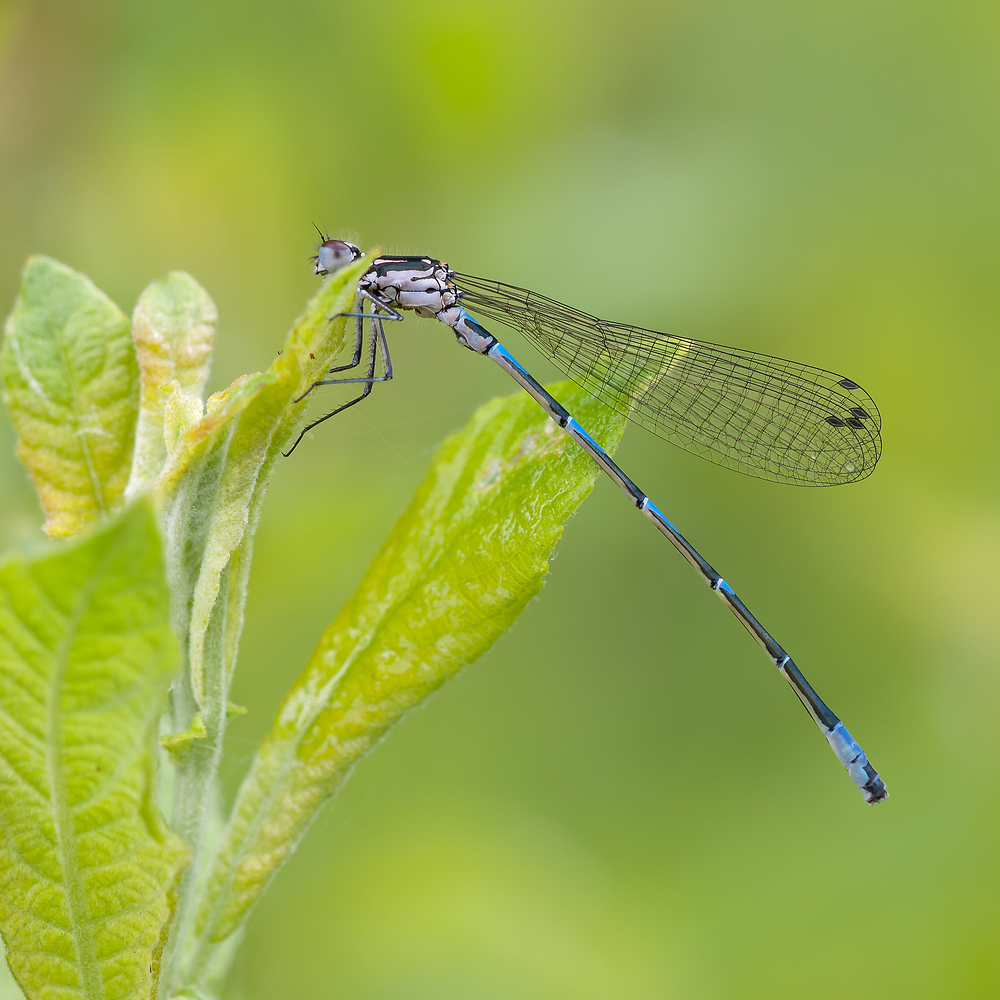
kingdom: Animalia
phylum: Arthropoda
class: Insecta
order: Odonata
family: Coenagrionidae
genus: Coenagrion
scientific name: Coenagrion pulchellum
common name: Variable bluet
